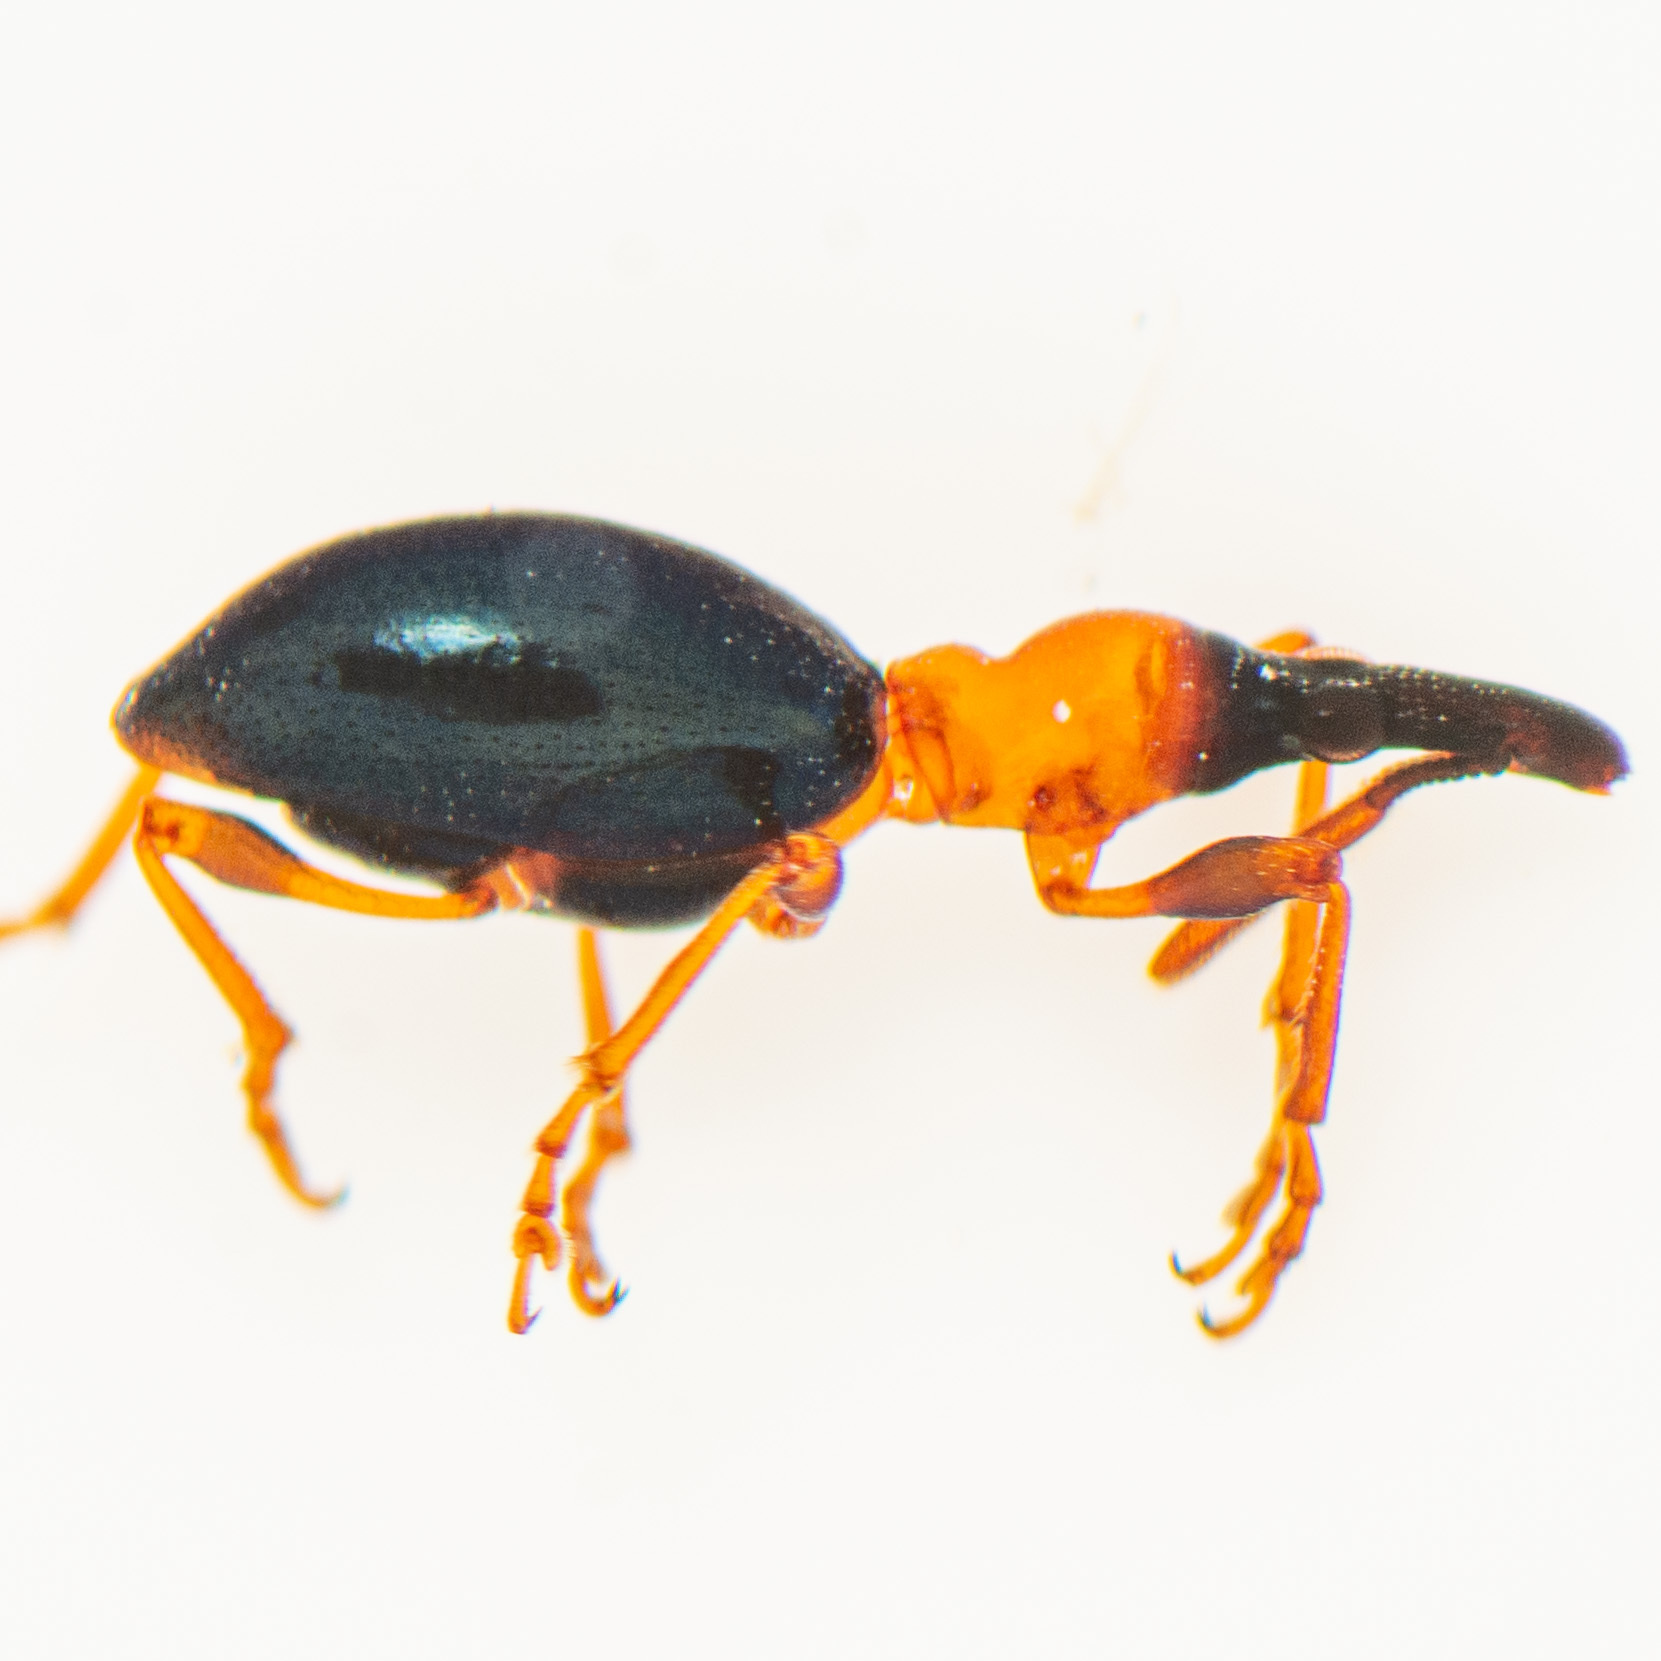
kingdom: Animalia
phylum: Arthropoda
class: Insecta
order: Coleoptera
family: Brentidae
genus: Cylas
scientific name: Cylas formicarius
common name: Sweetpotato weevil
